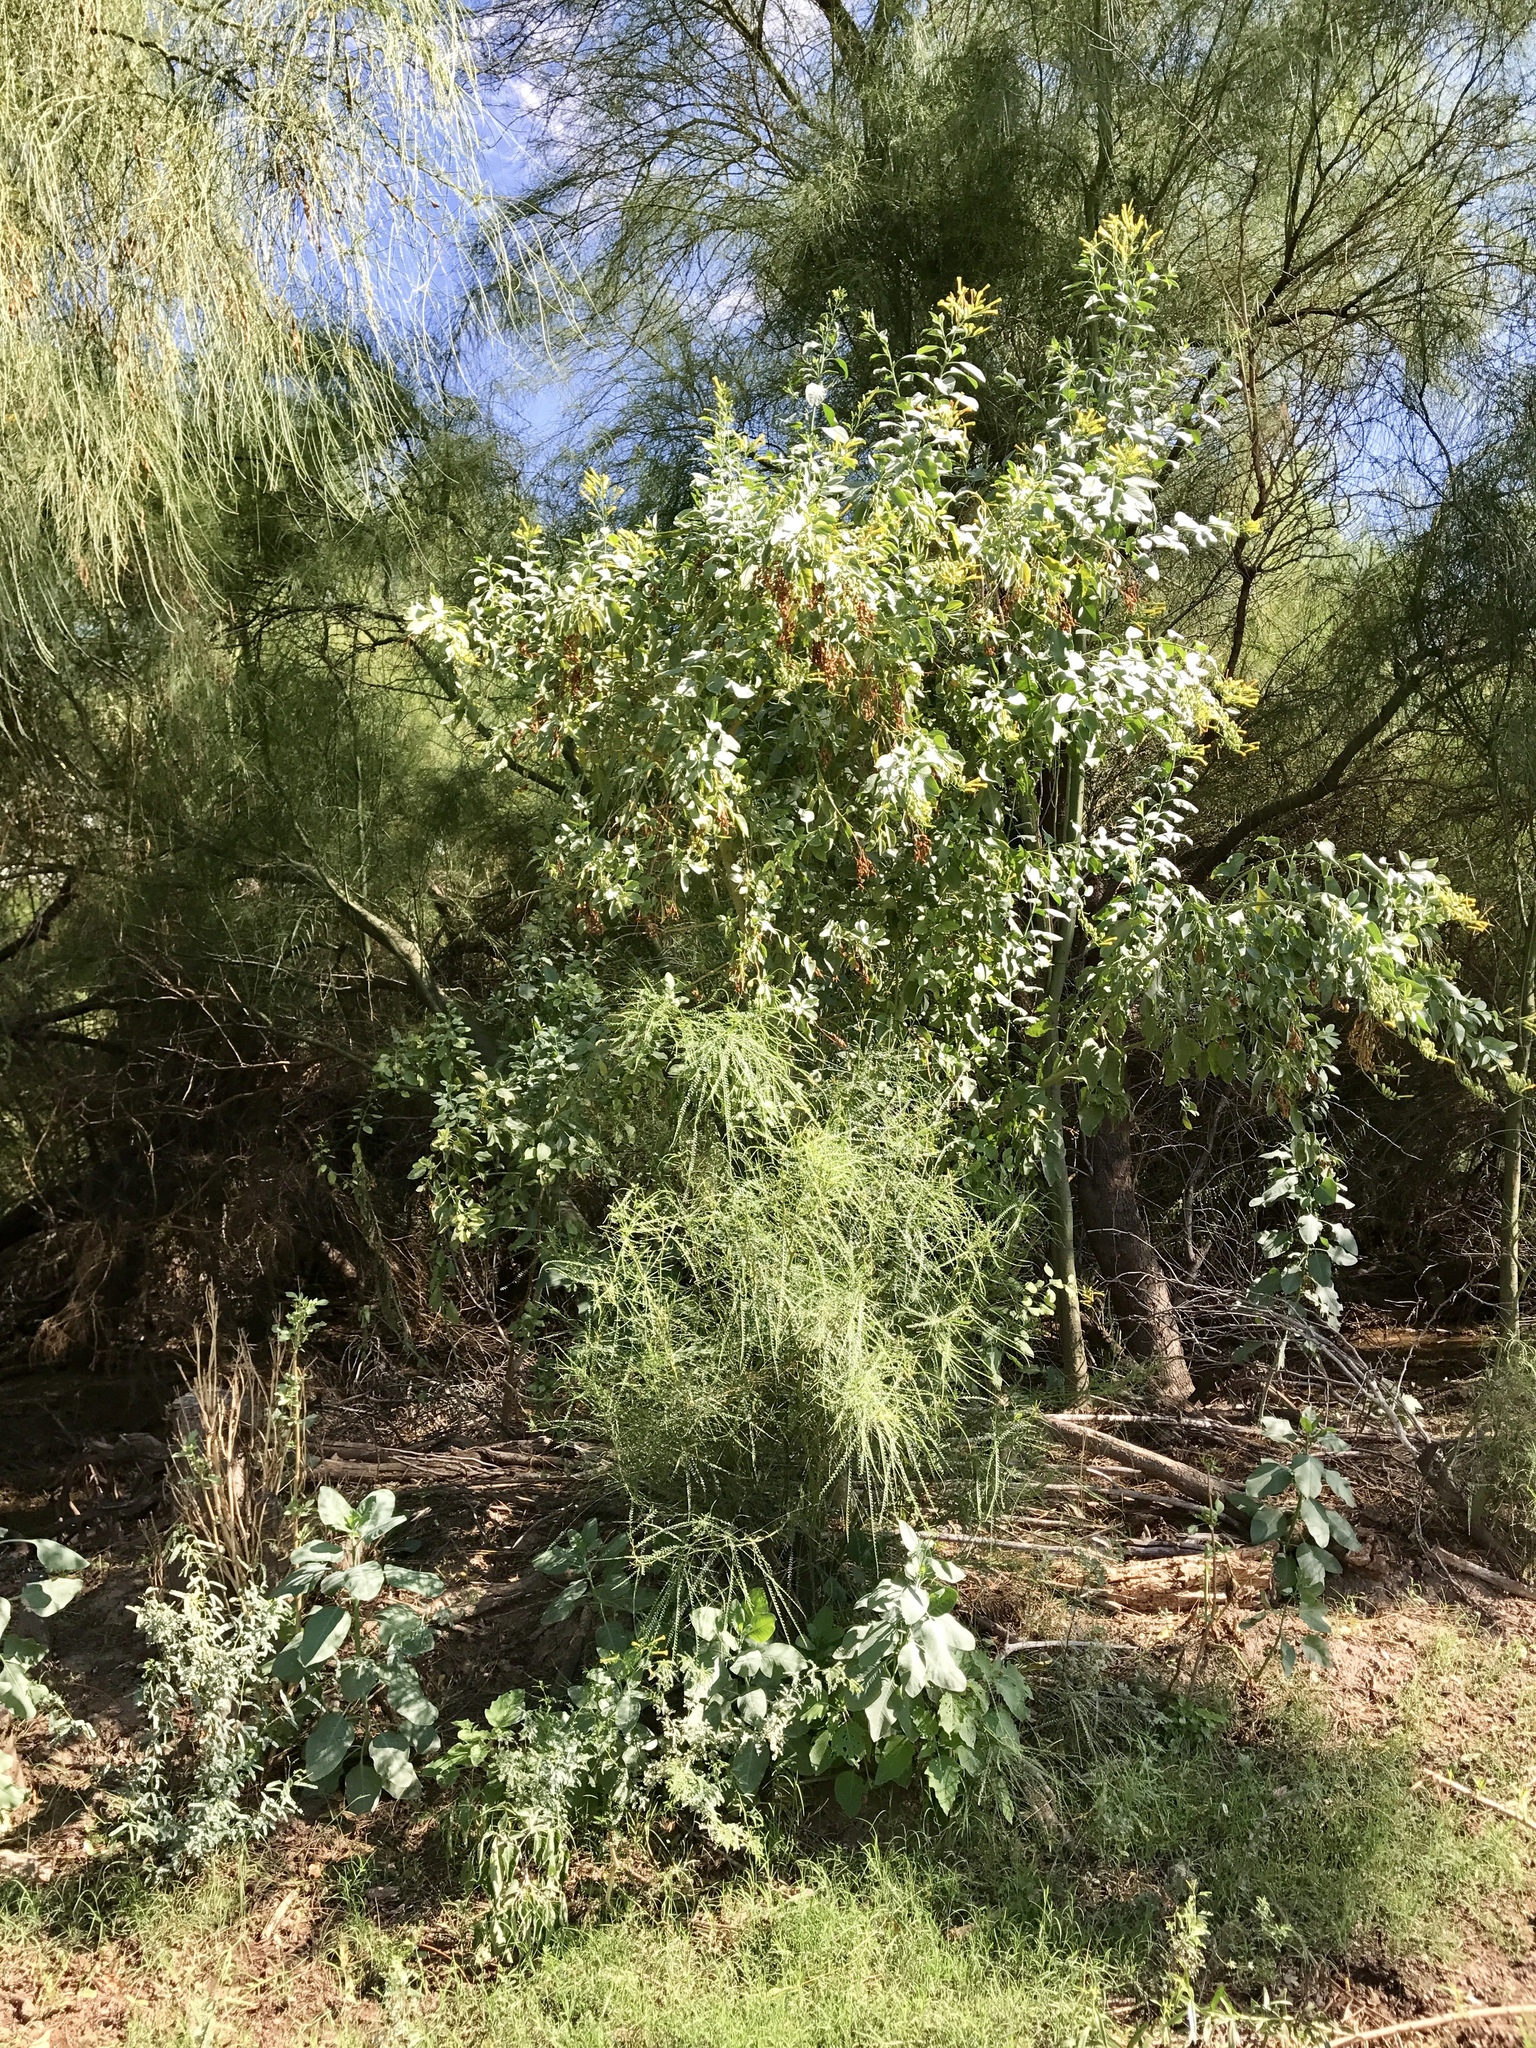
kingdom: Plantae
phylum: Tracheophyta
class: Magnoliopsida
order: Solanales
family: Solanaceae
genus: Nicotiana
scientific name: Nicotiana glauca
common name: Tree tobacco
